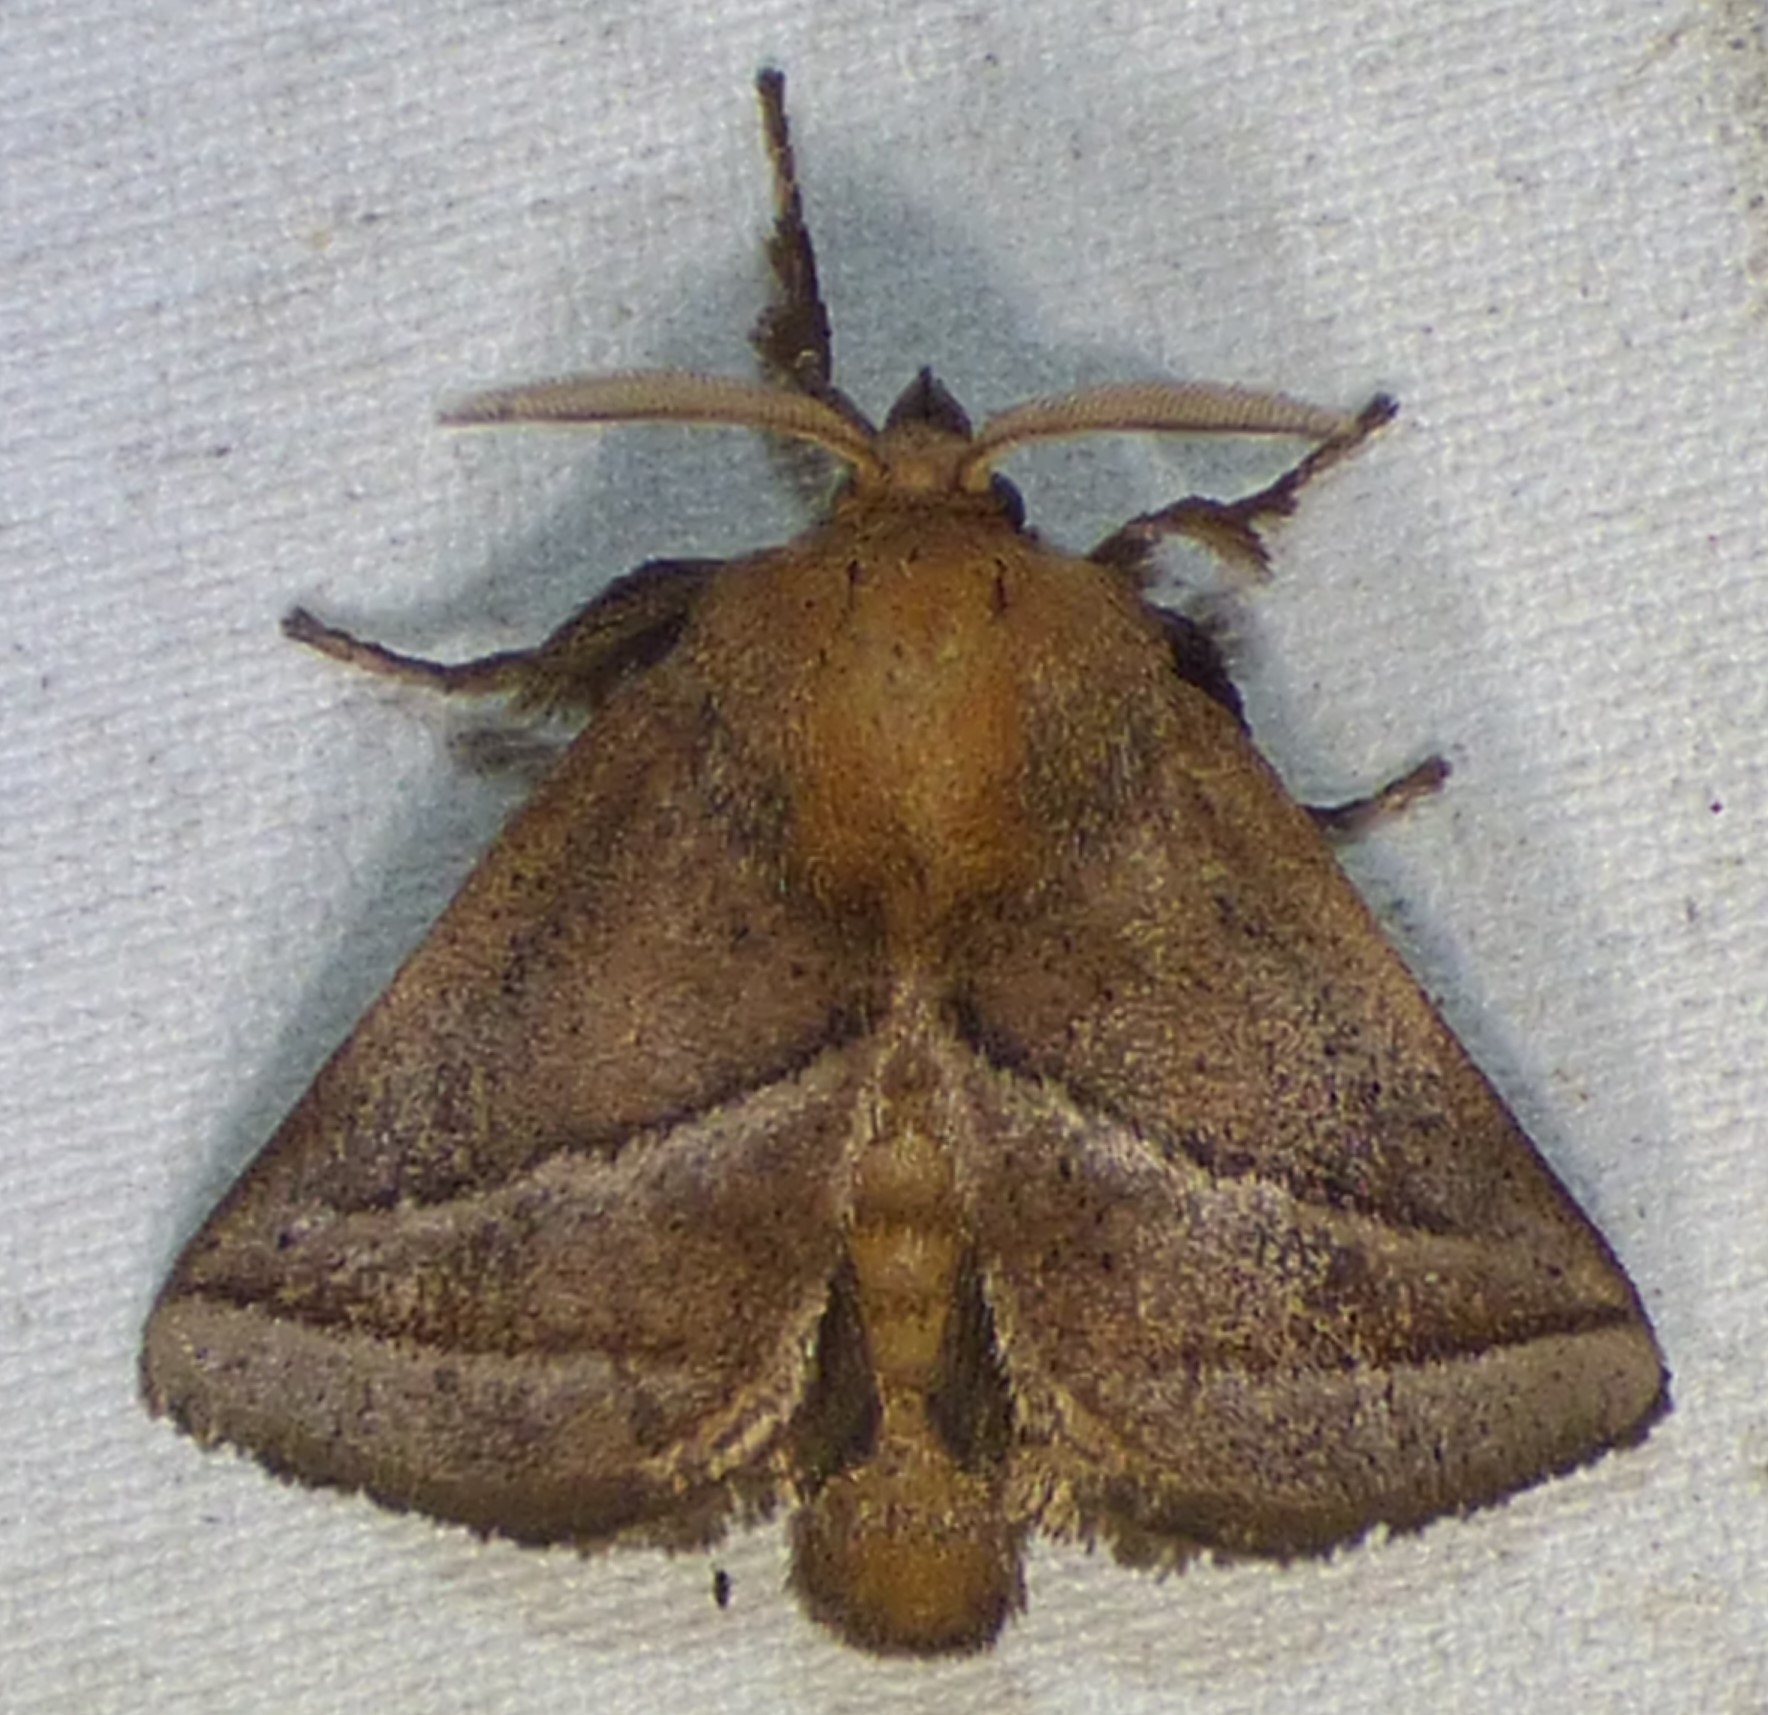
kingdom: Animalia
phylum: Arthropoda
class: Insecta
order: Lepidoptera
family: Limacodidae
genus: Natada
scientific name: Natada nasoni
